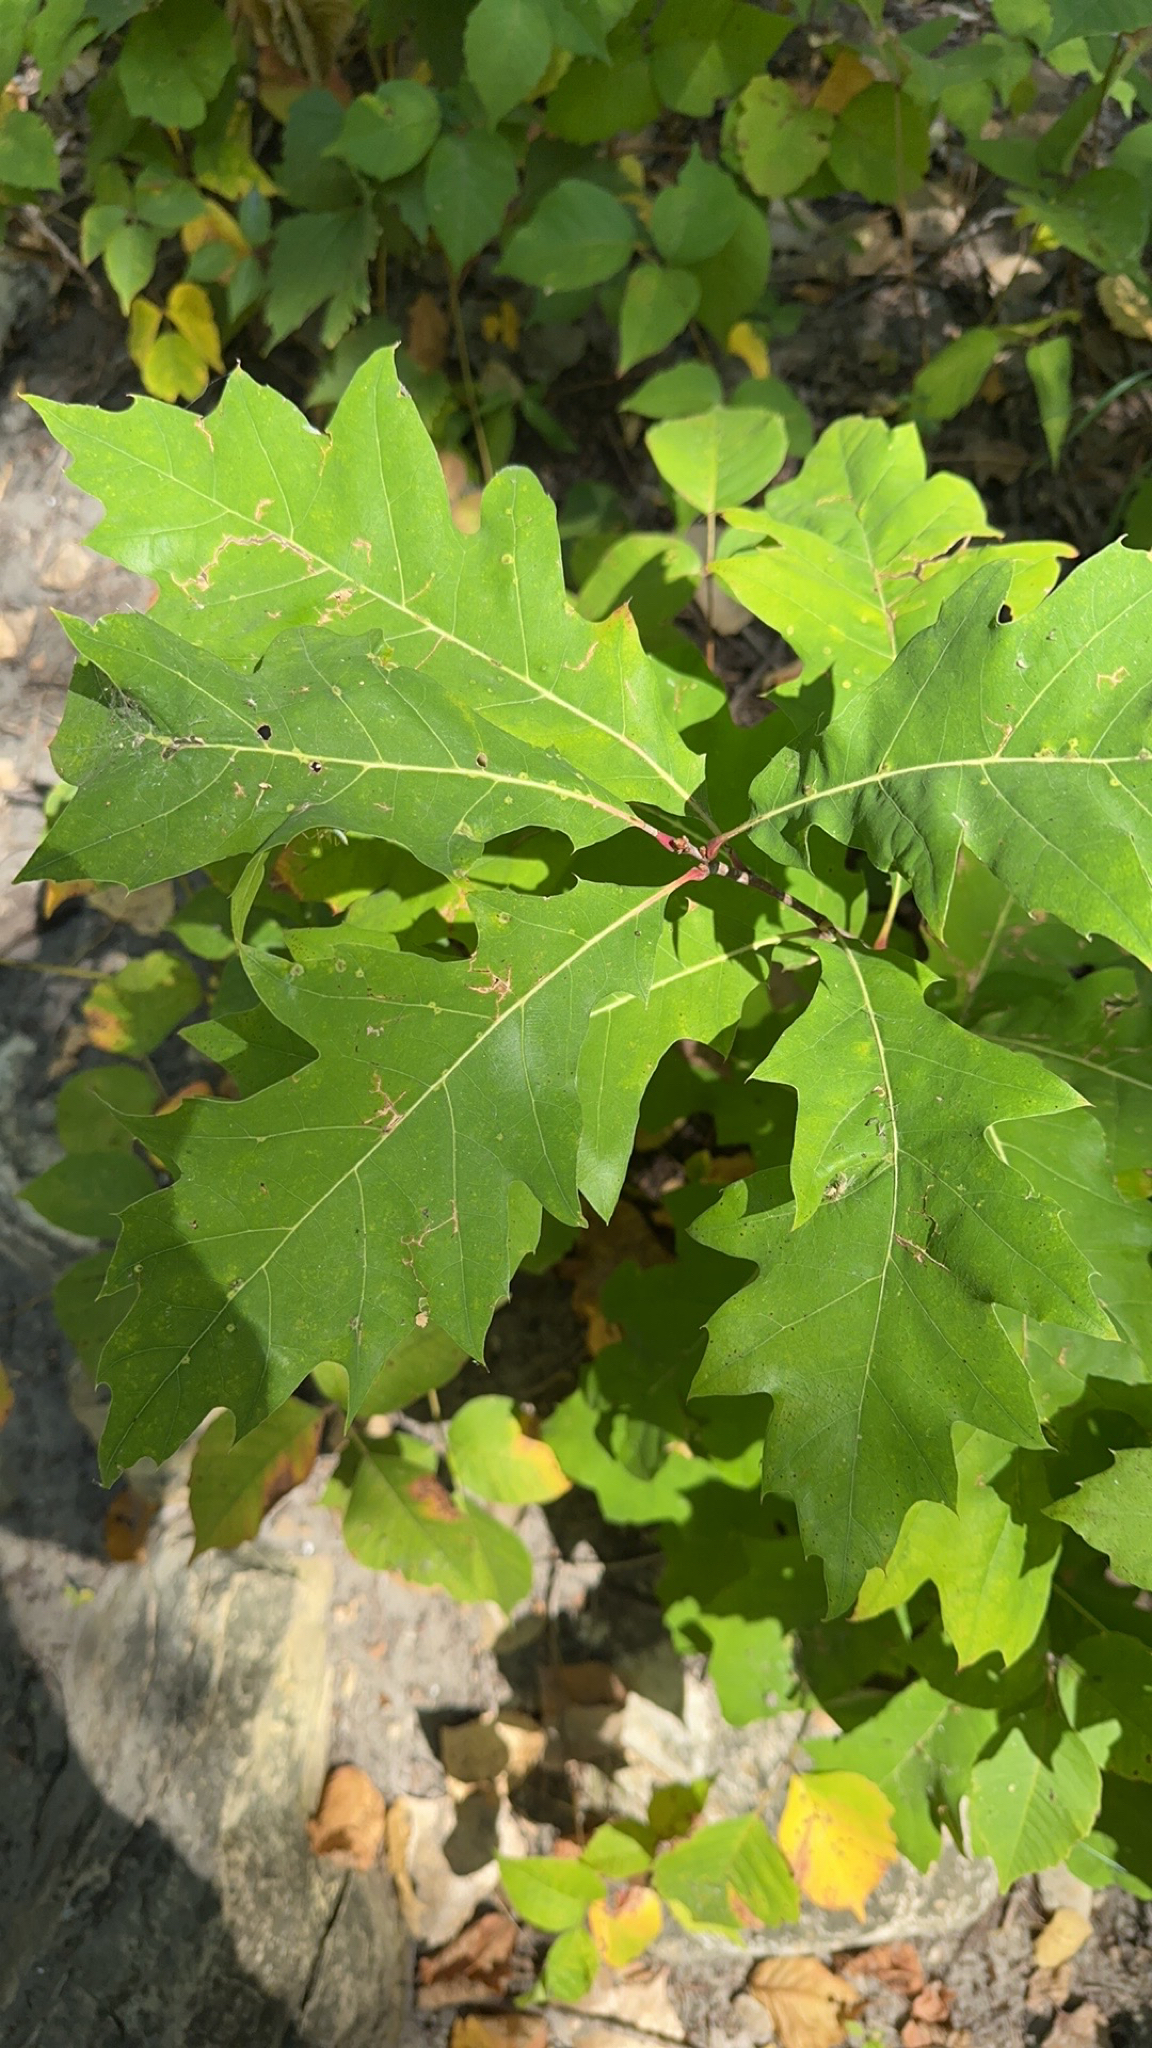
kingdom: Plantae
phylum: Tracheophyta
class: Magnoliopsida
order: Fagales
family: Fagaceae
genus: Quercus
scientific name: Quercus rubra
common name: Red oak
